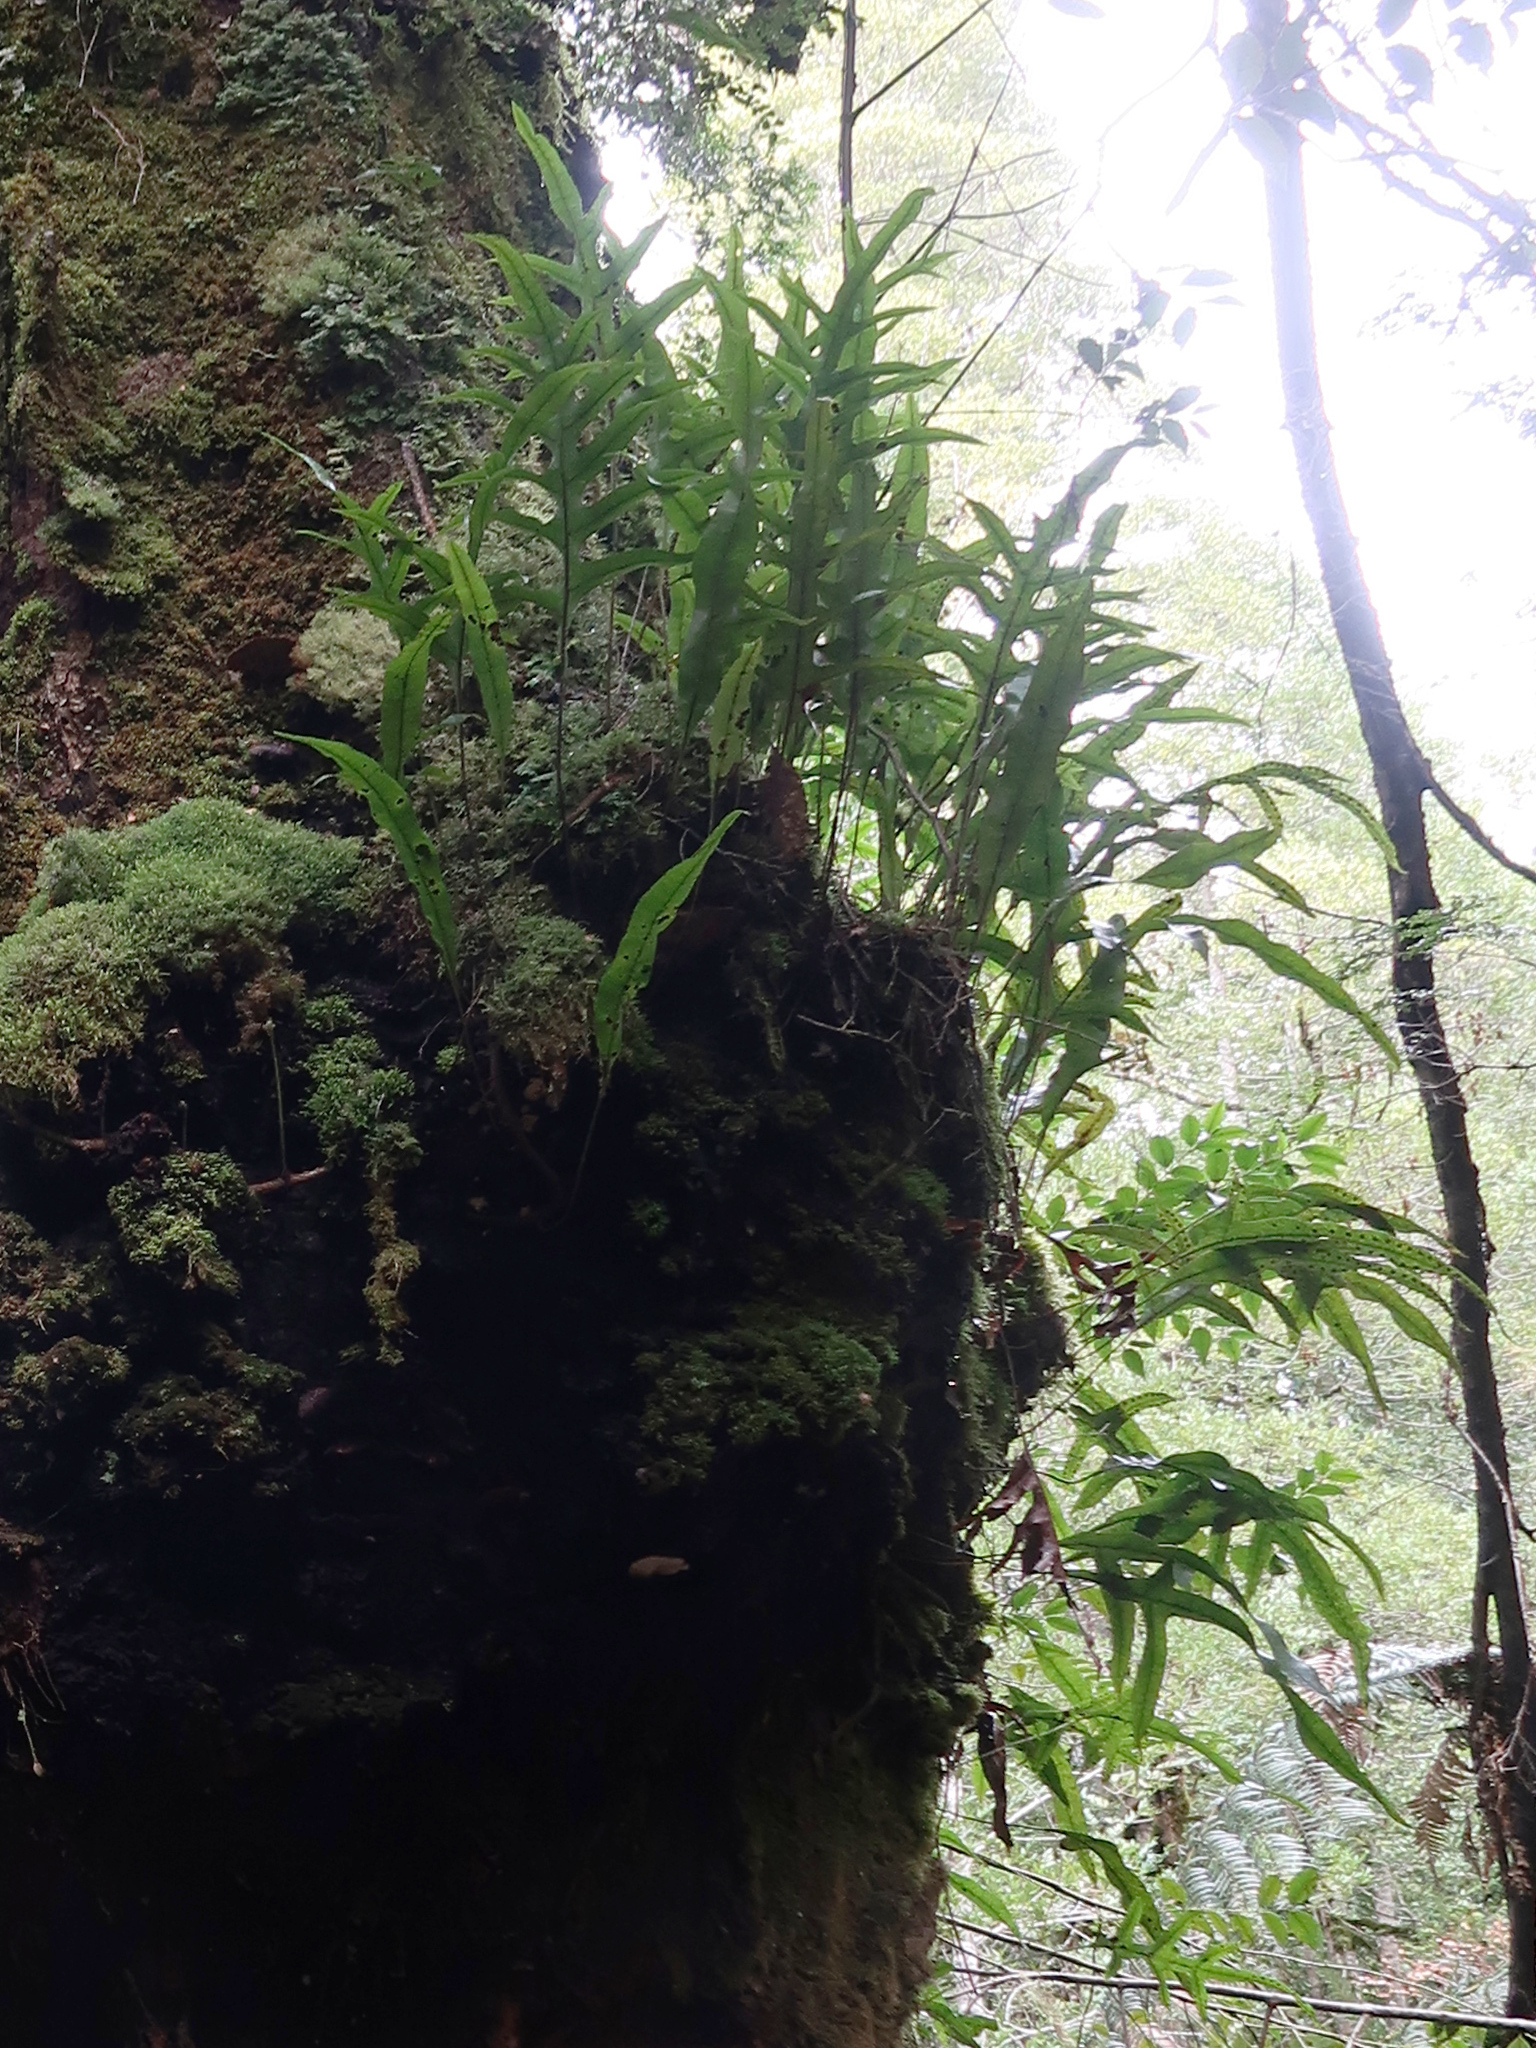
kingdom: Plantae
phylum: Tracheophyta
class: Polypodiopsida
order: Polypodiales
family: Polypodiaceae
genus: Lecanopteris
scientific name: Lecanopteris pustulata
